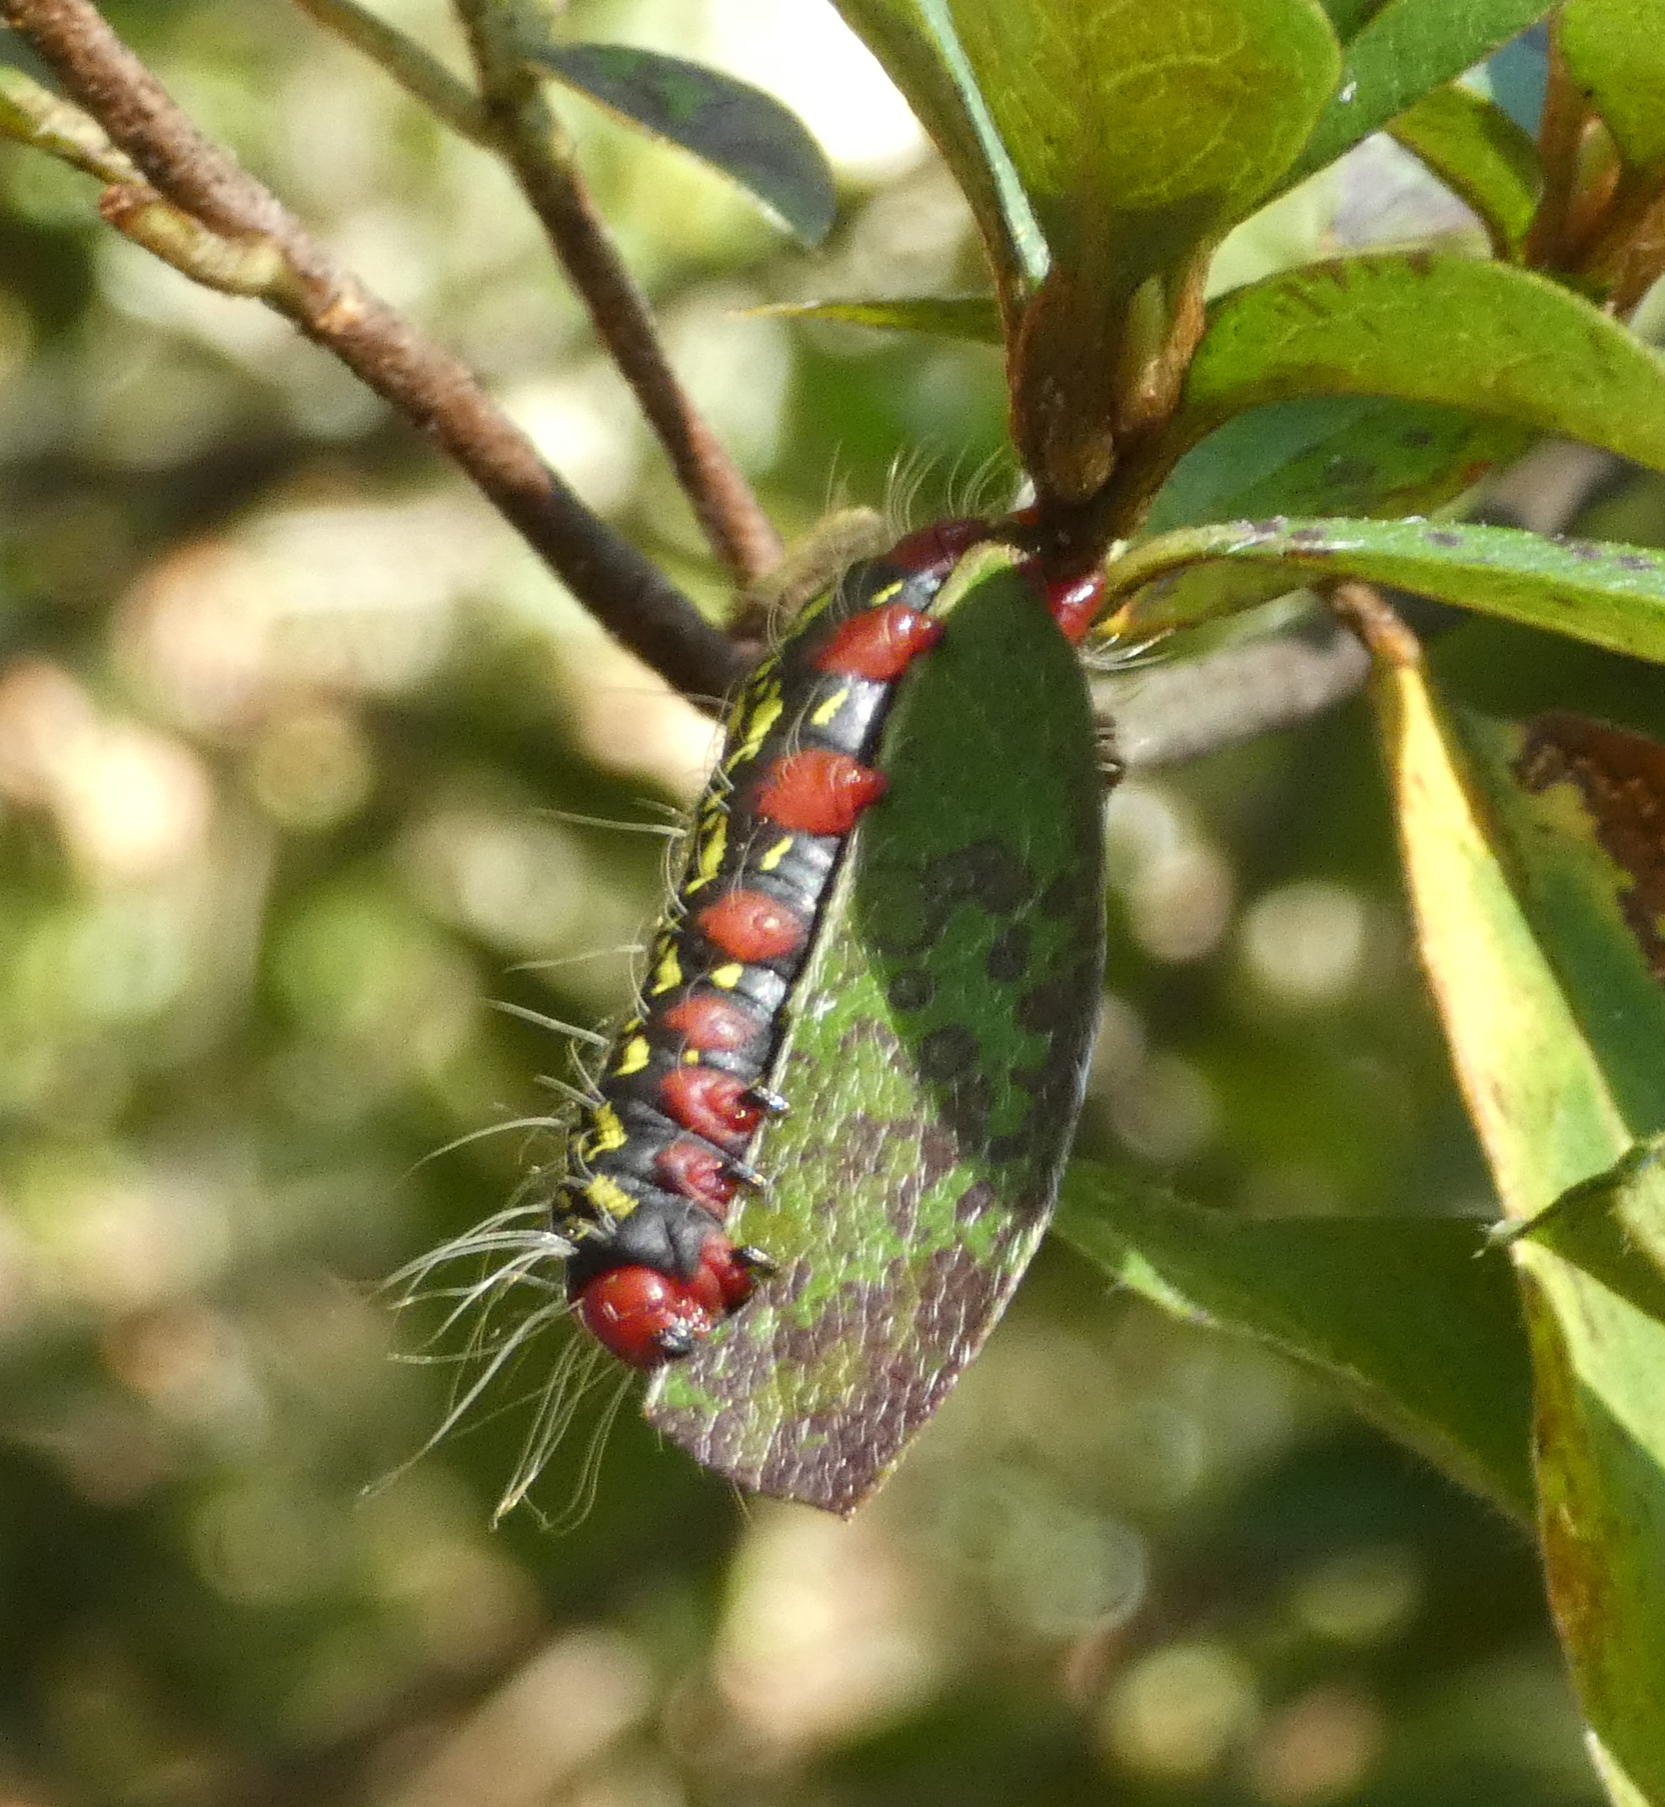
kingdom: Animalia
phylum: Arthropoda
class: Insecta
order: Lepidoptera
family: Notodontidae
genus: Datana
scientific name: Datana major
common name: Azalea caterpillar
